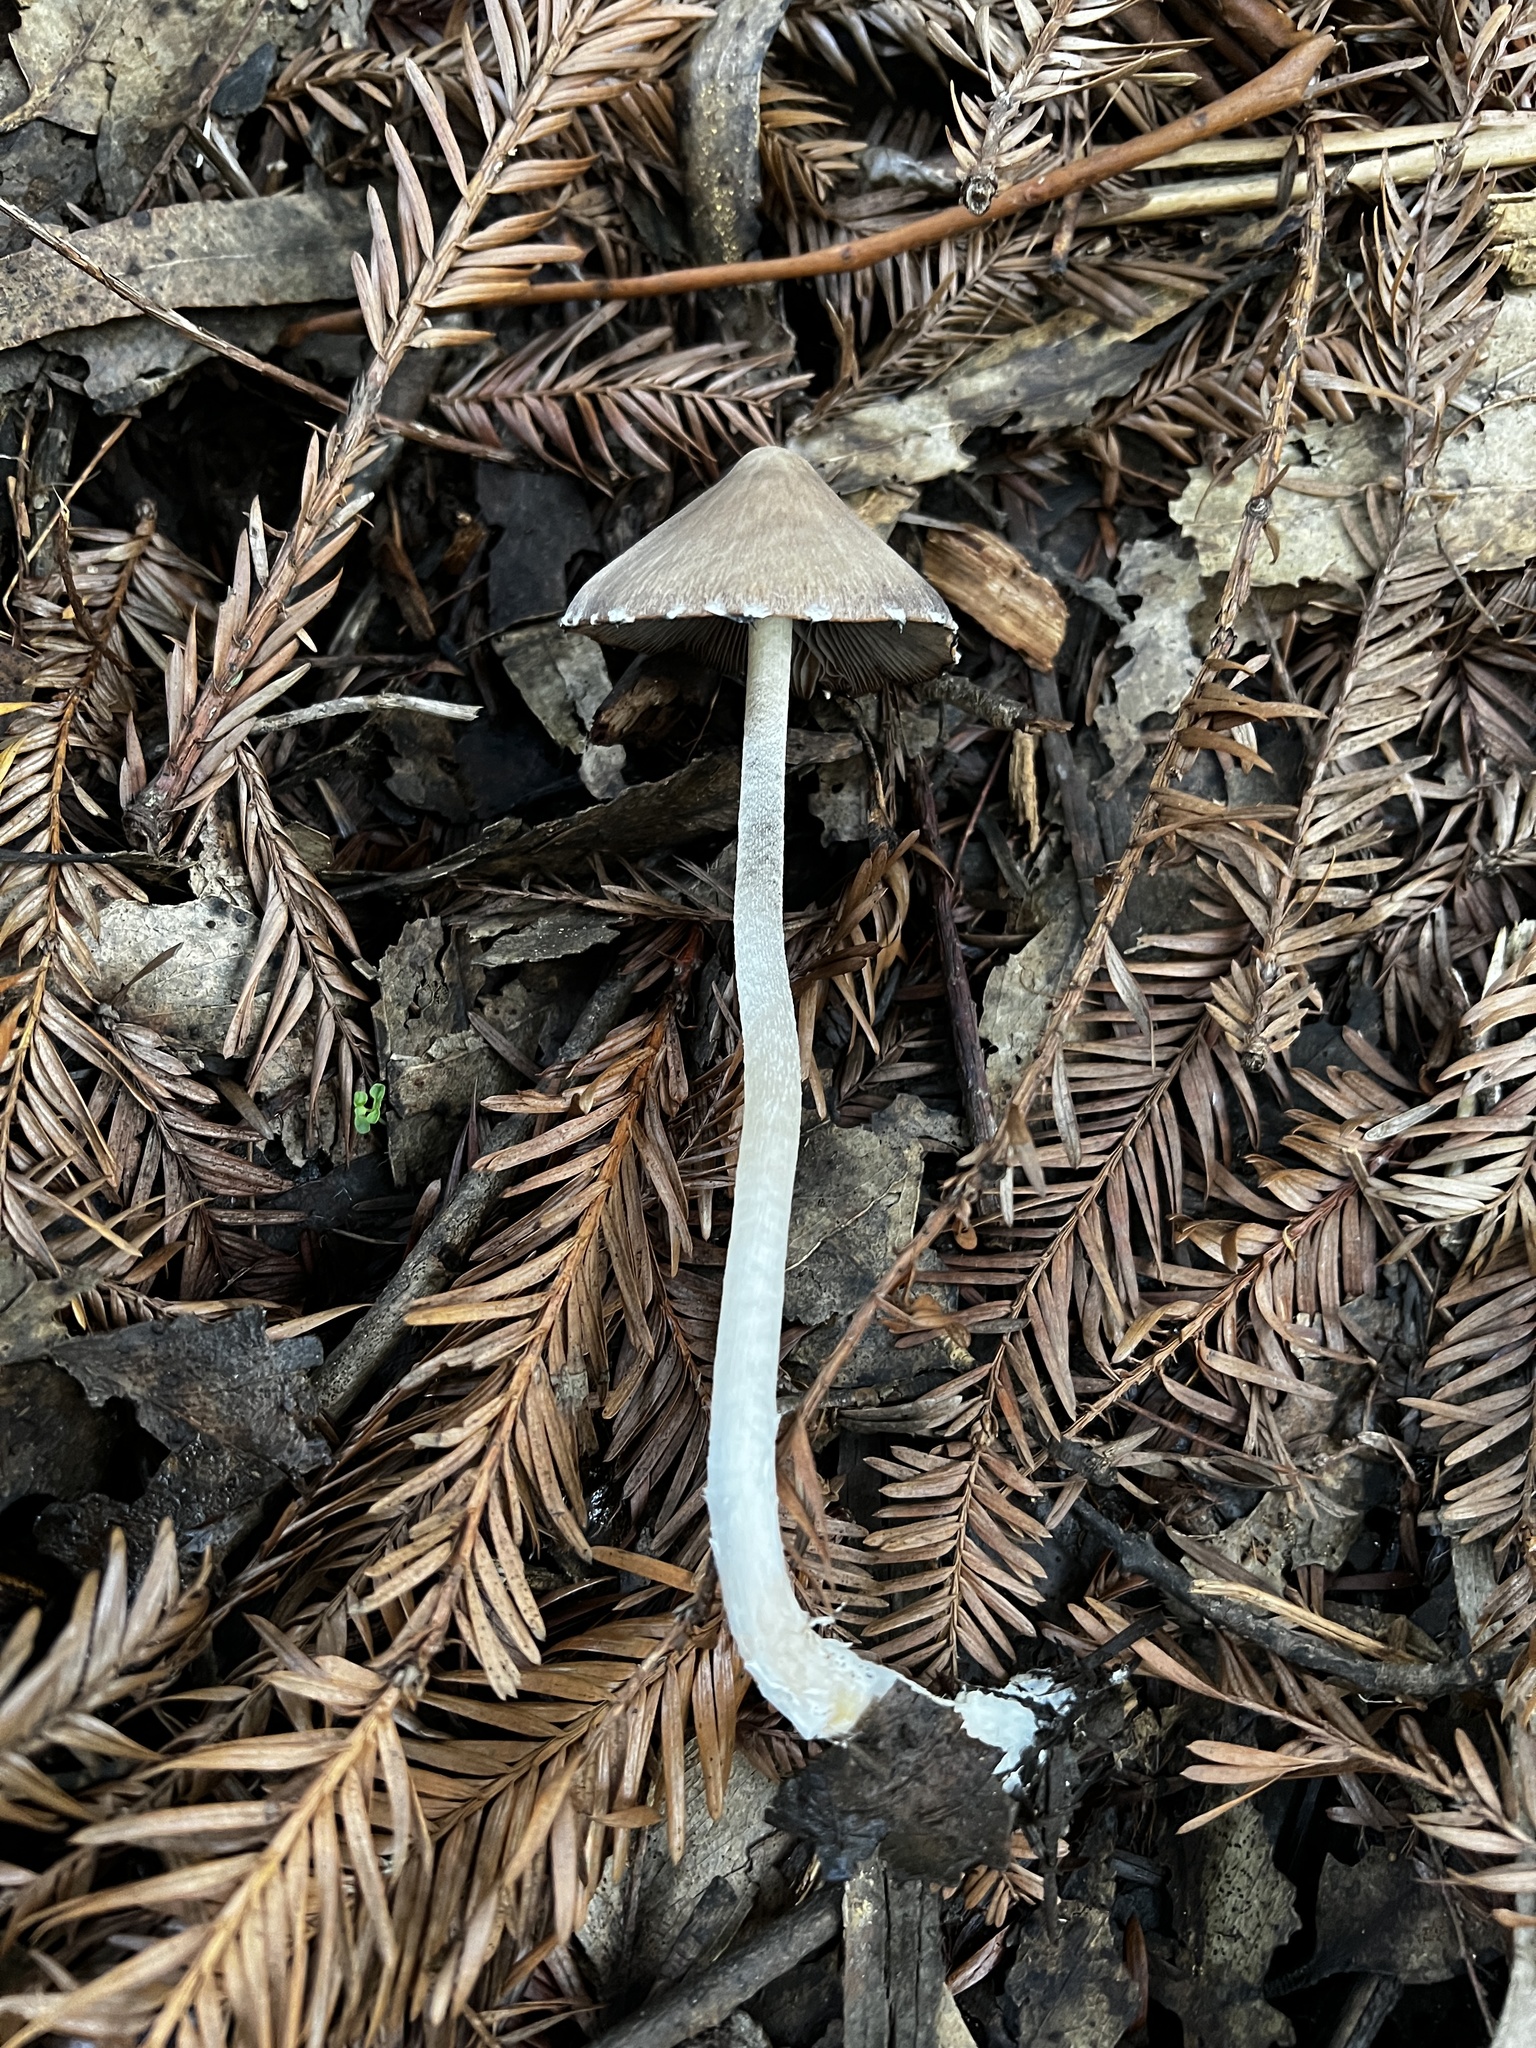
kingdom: Fungi
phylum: Basidiomycota
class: Agaricomycetes
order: Agaricales
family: Psathyrellaceae
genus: Psathyrella
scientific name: Psathyrella longipes
